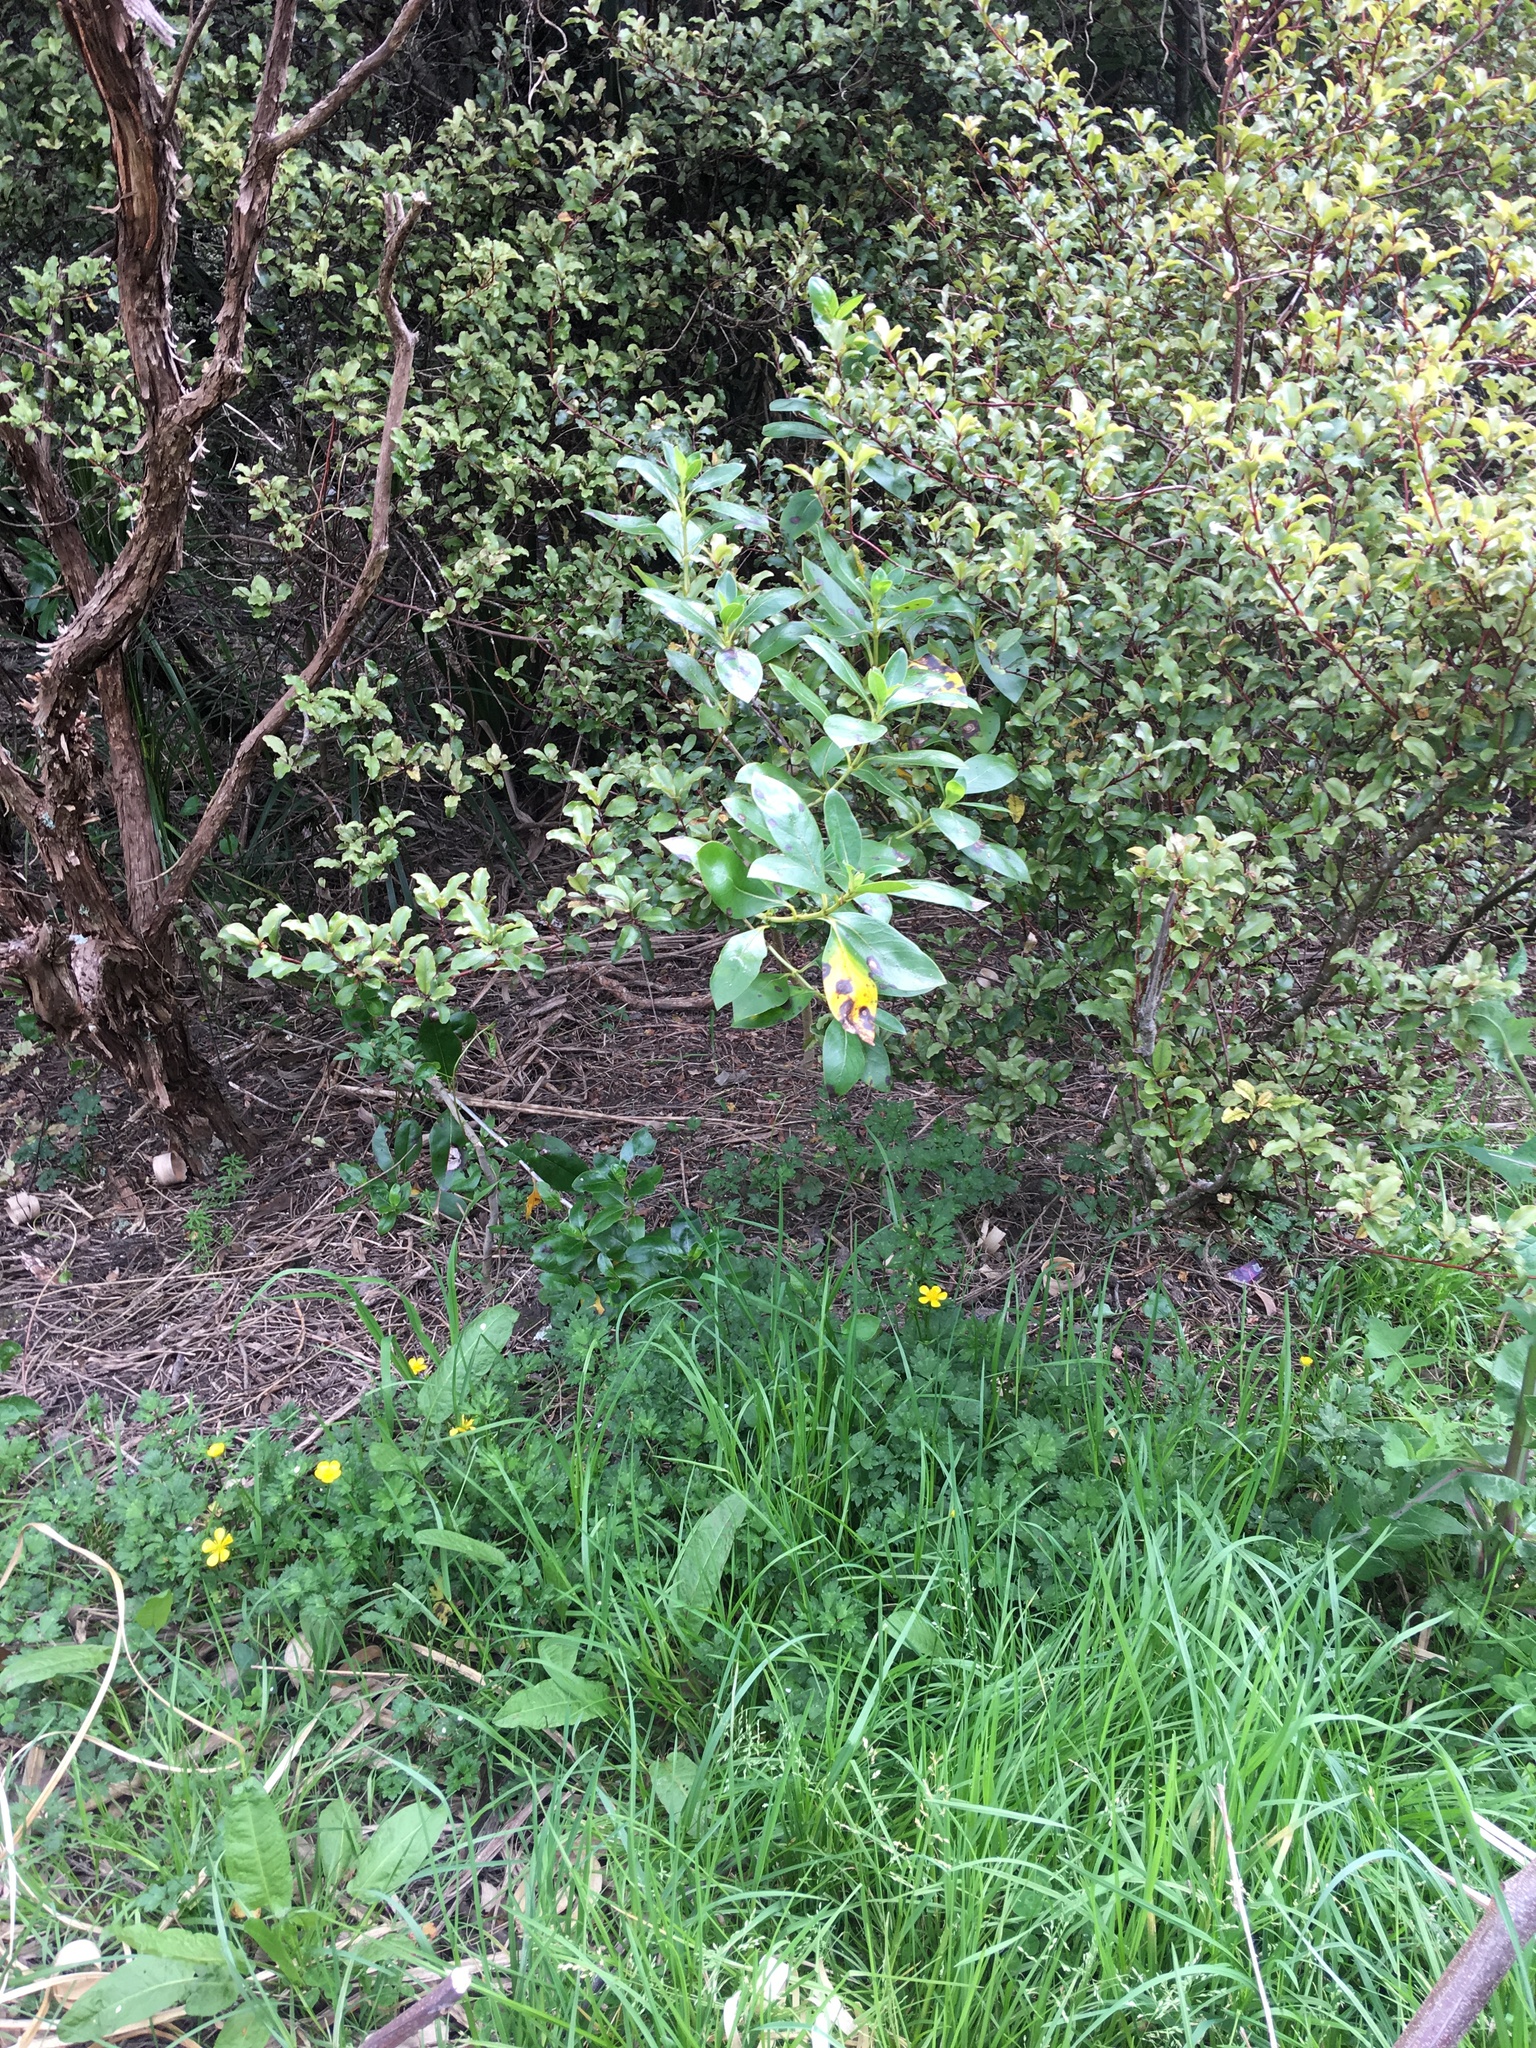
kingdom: Plantae
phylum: Tracheophyta
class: Magnoliopsida
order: Caryophyllales
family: Polygonaceae
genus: Rumex
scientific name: Rumex obtusifolius
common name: Bitter dock
